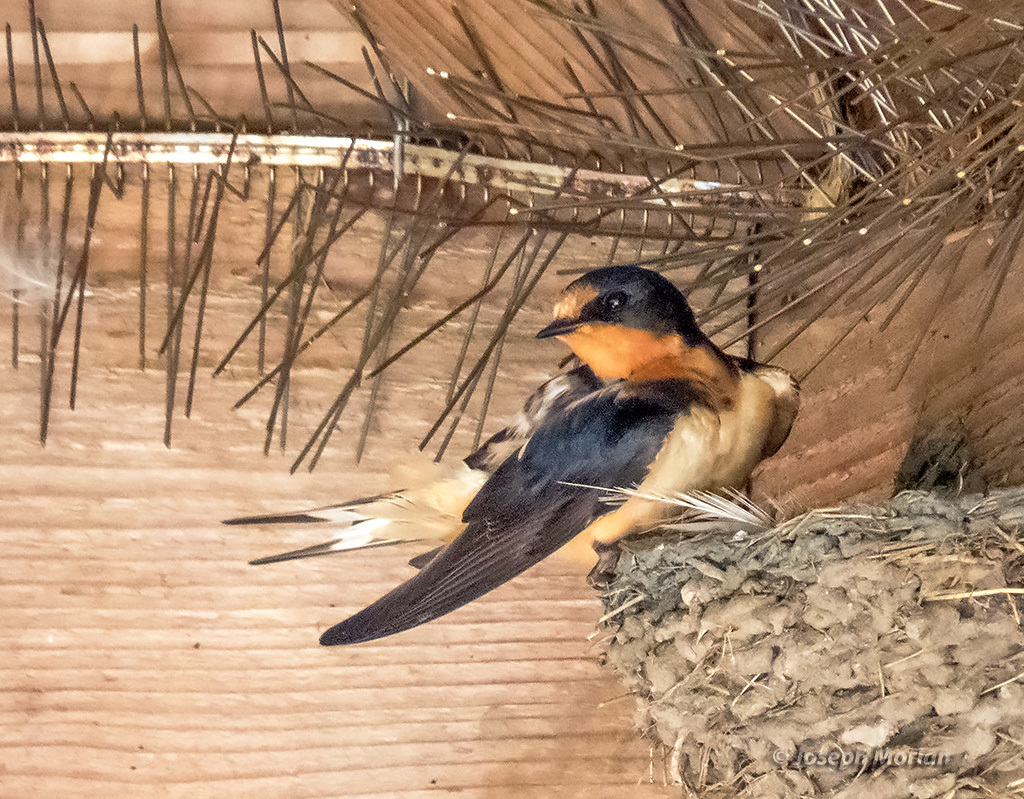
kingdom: Animalia
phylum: Chordata
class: Aves
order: Passeriformes
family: Hirundinidae
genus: Hirundo
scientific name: Hirundo rustica
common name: Barn swallow
